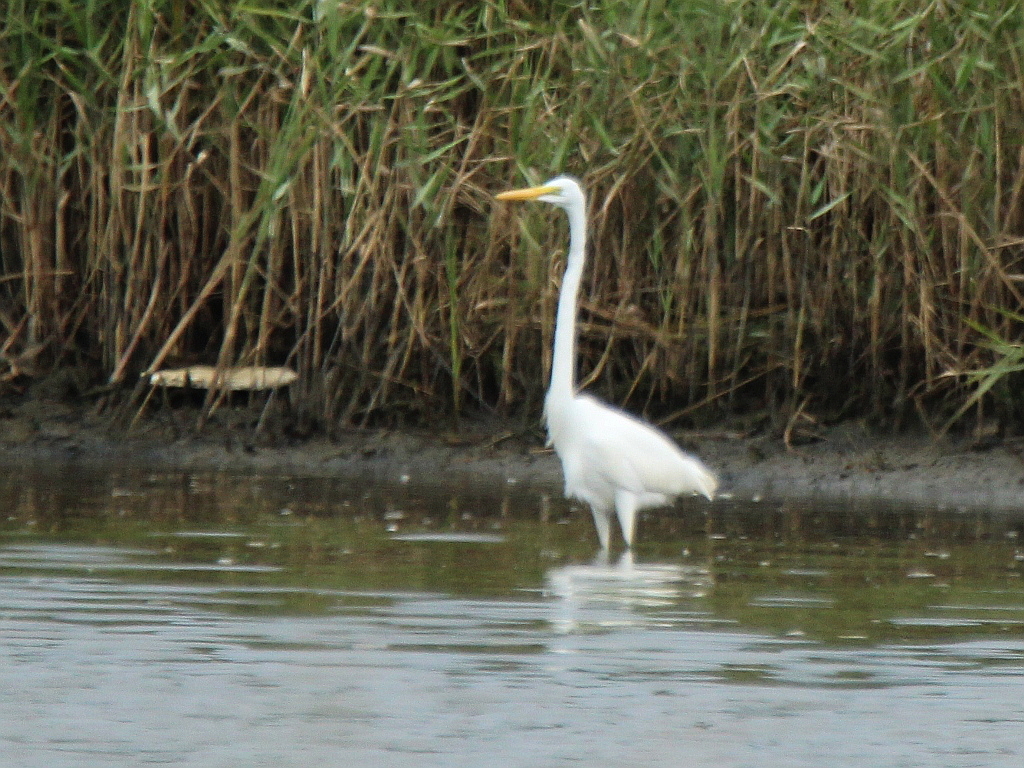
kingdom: Animalia
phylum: Chordata
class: Aves
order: Pelecaniformes
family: Ardeidae
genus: Ardea
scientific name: Ardea alba
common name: Great egret
